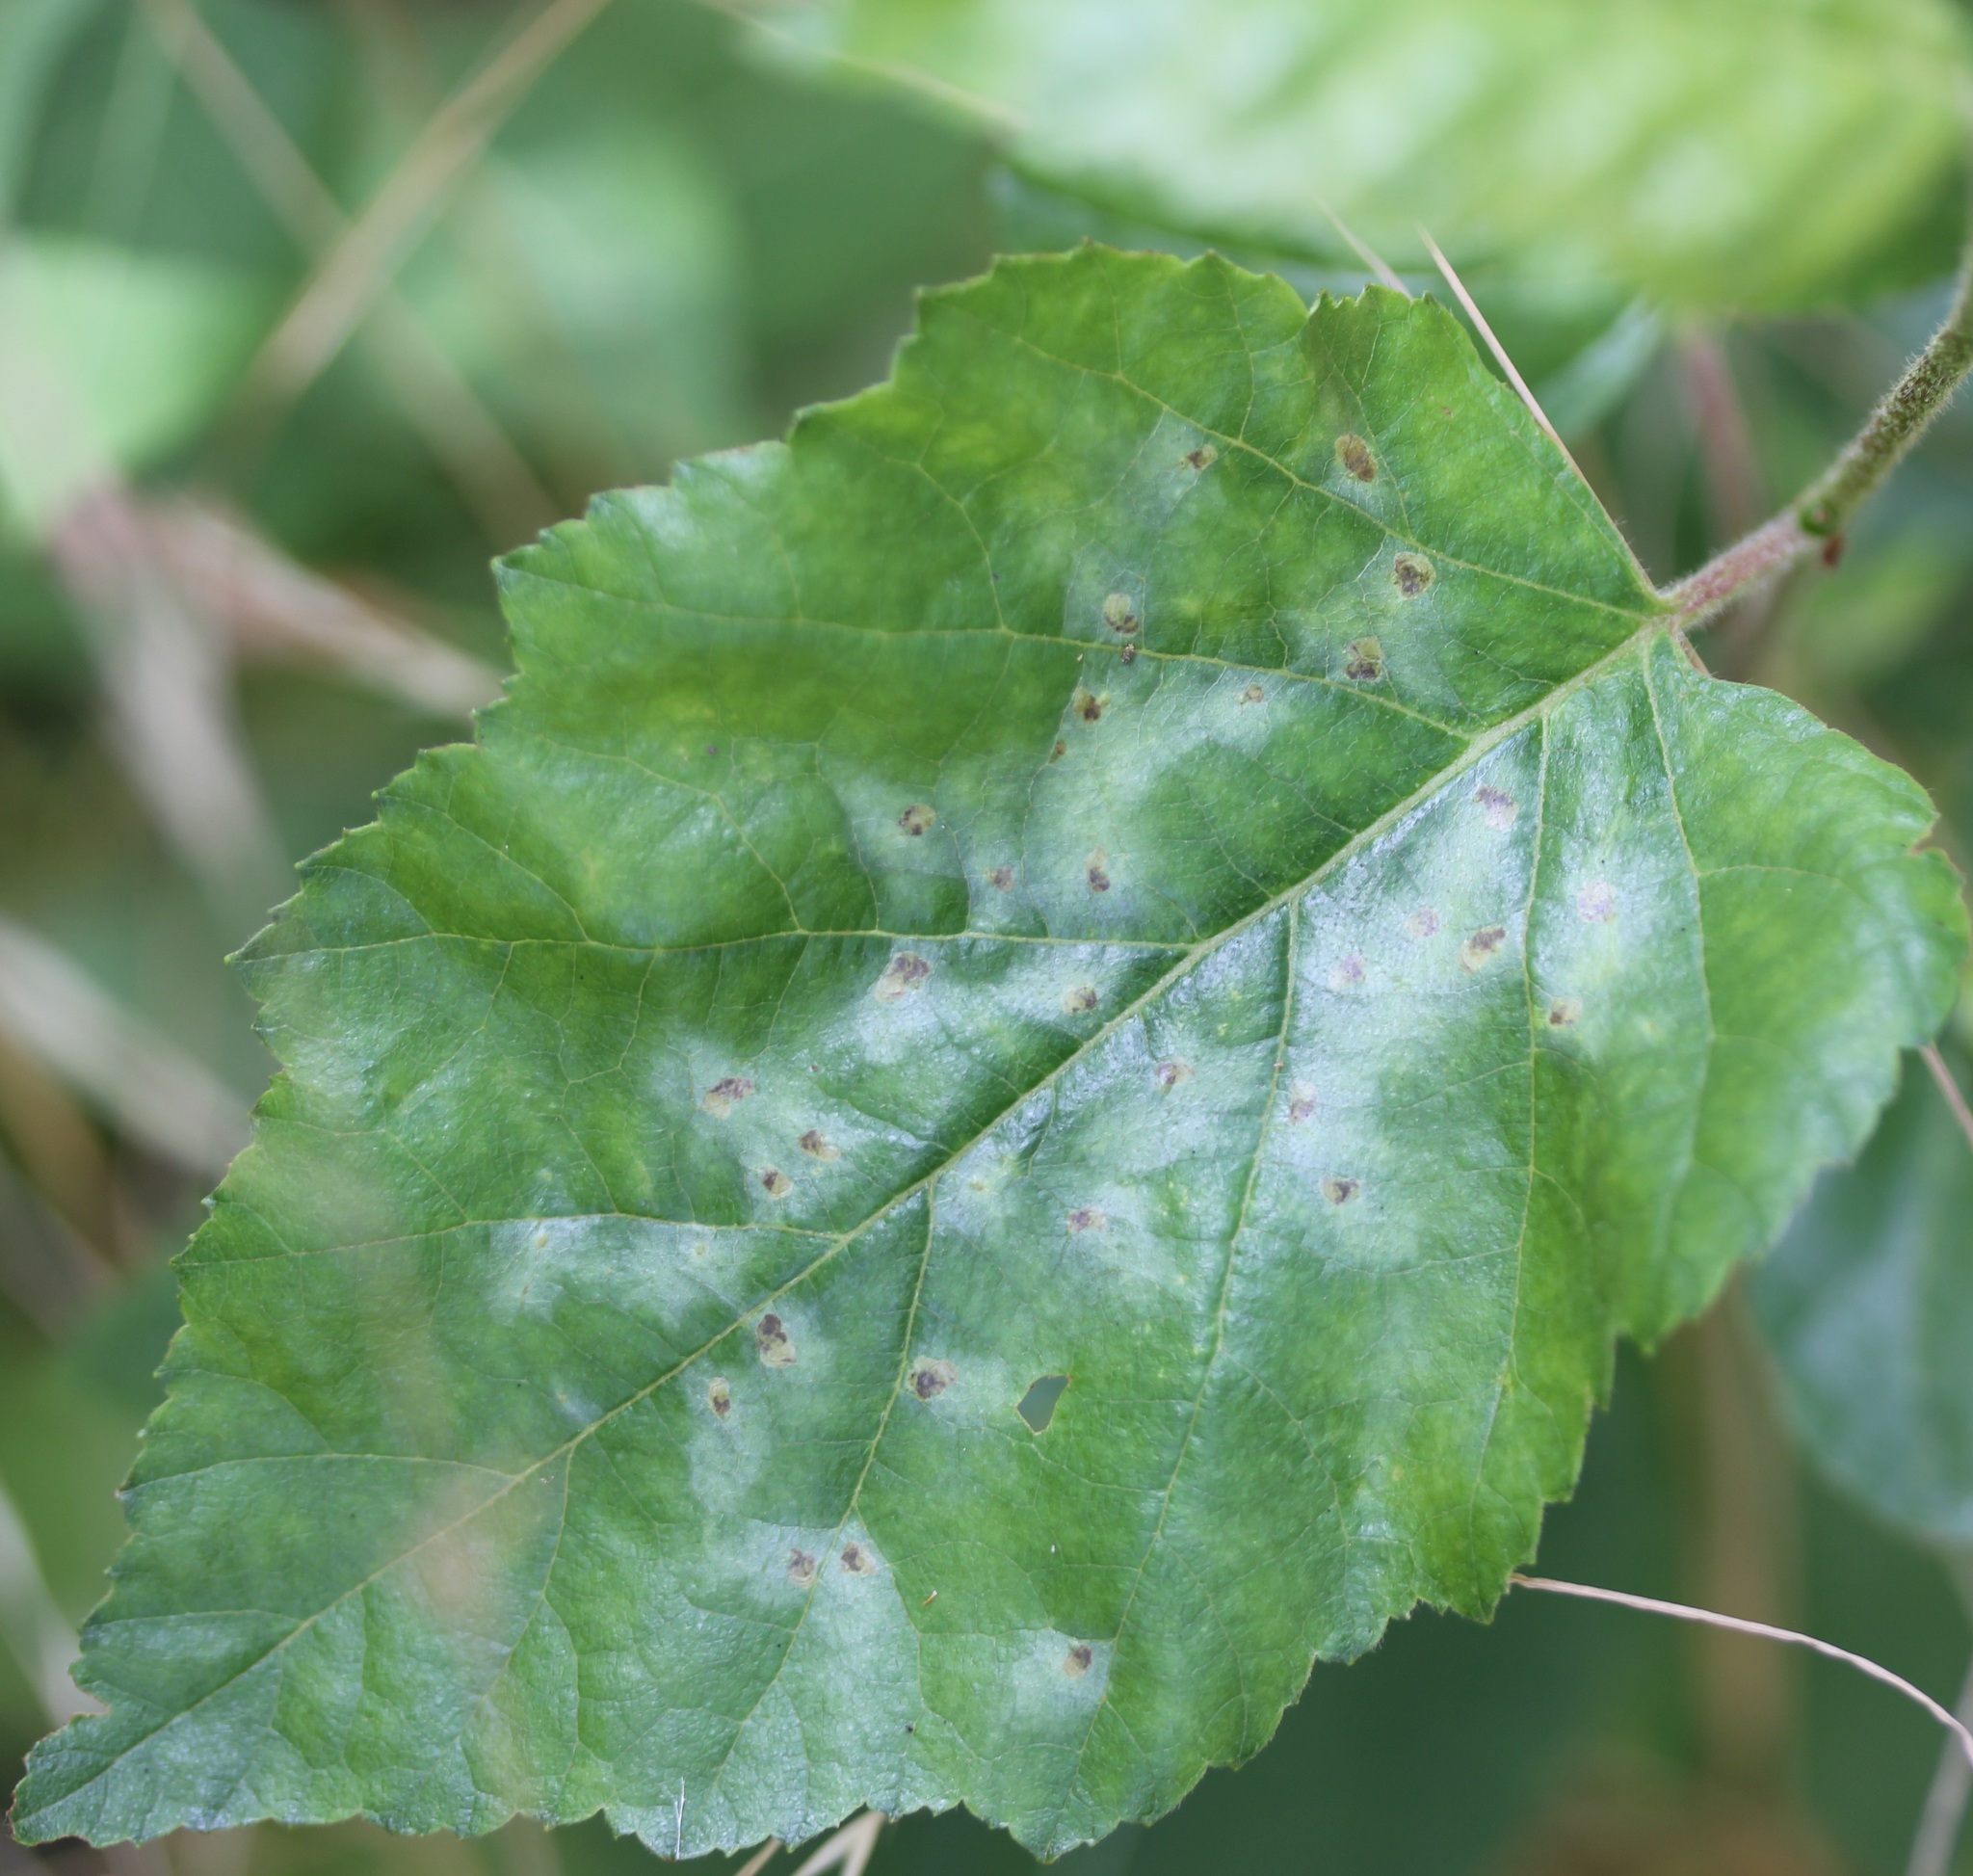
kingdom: Animalia
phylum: Arthropoda
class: Insecta
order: Hymenoptera
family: Tenthredinidae
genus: Fenusa
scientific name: Fenusa pumila
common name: Birch leafminer
